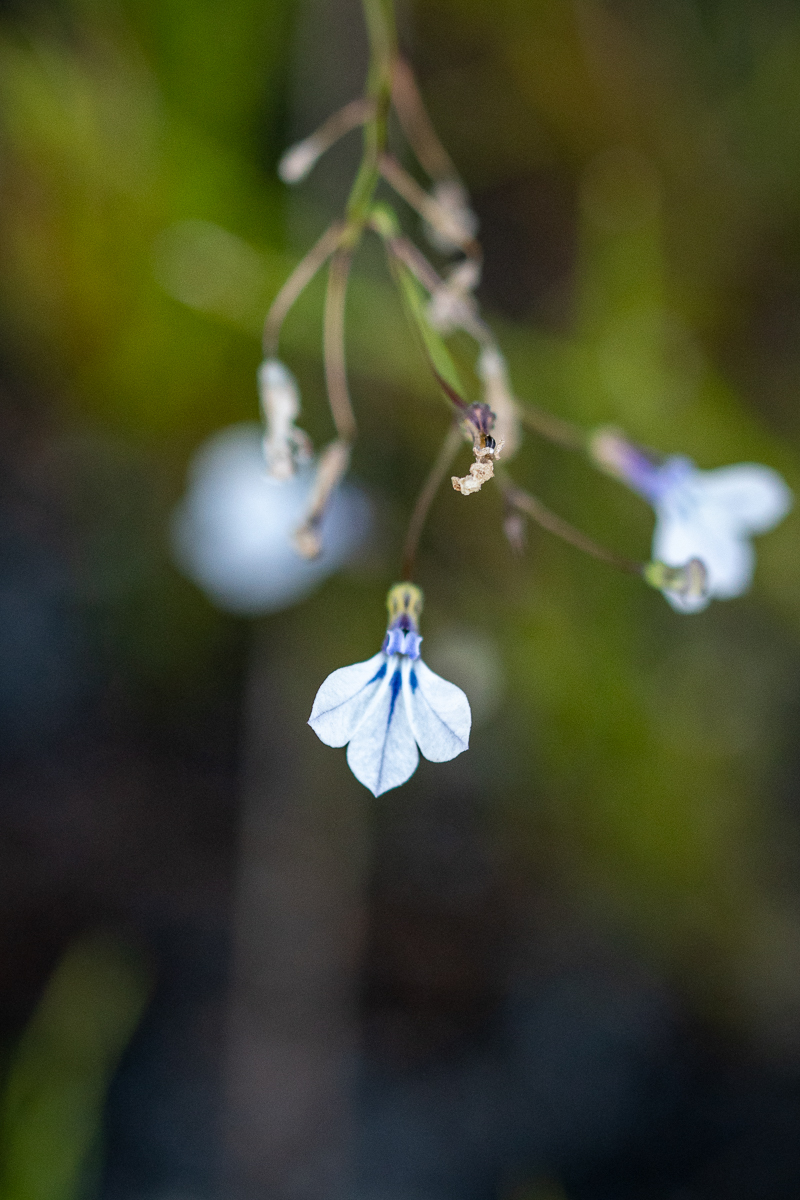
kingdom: Plantae
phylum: Tracheophyta
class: Magnoliopsida
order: Asterales
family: Campanulaceae
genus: Lobelia
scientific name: Lobelia setacea
